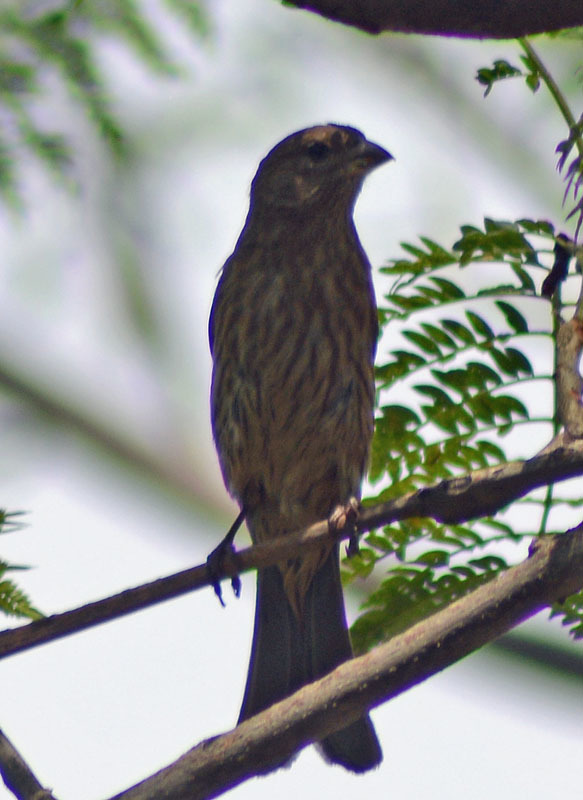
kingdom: Animalia
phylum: Chordata
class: Aves
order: Passeriformes
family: Fringillidae
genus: Haemorhous
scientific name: Haemorhous mexicanus
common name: House finch
